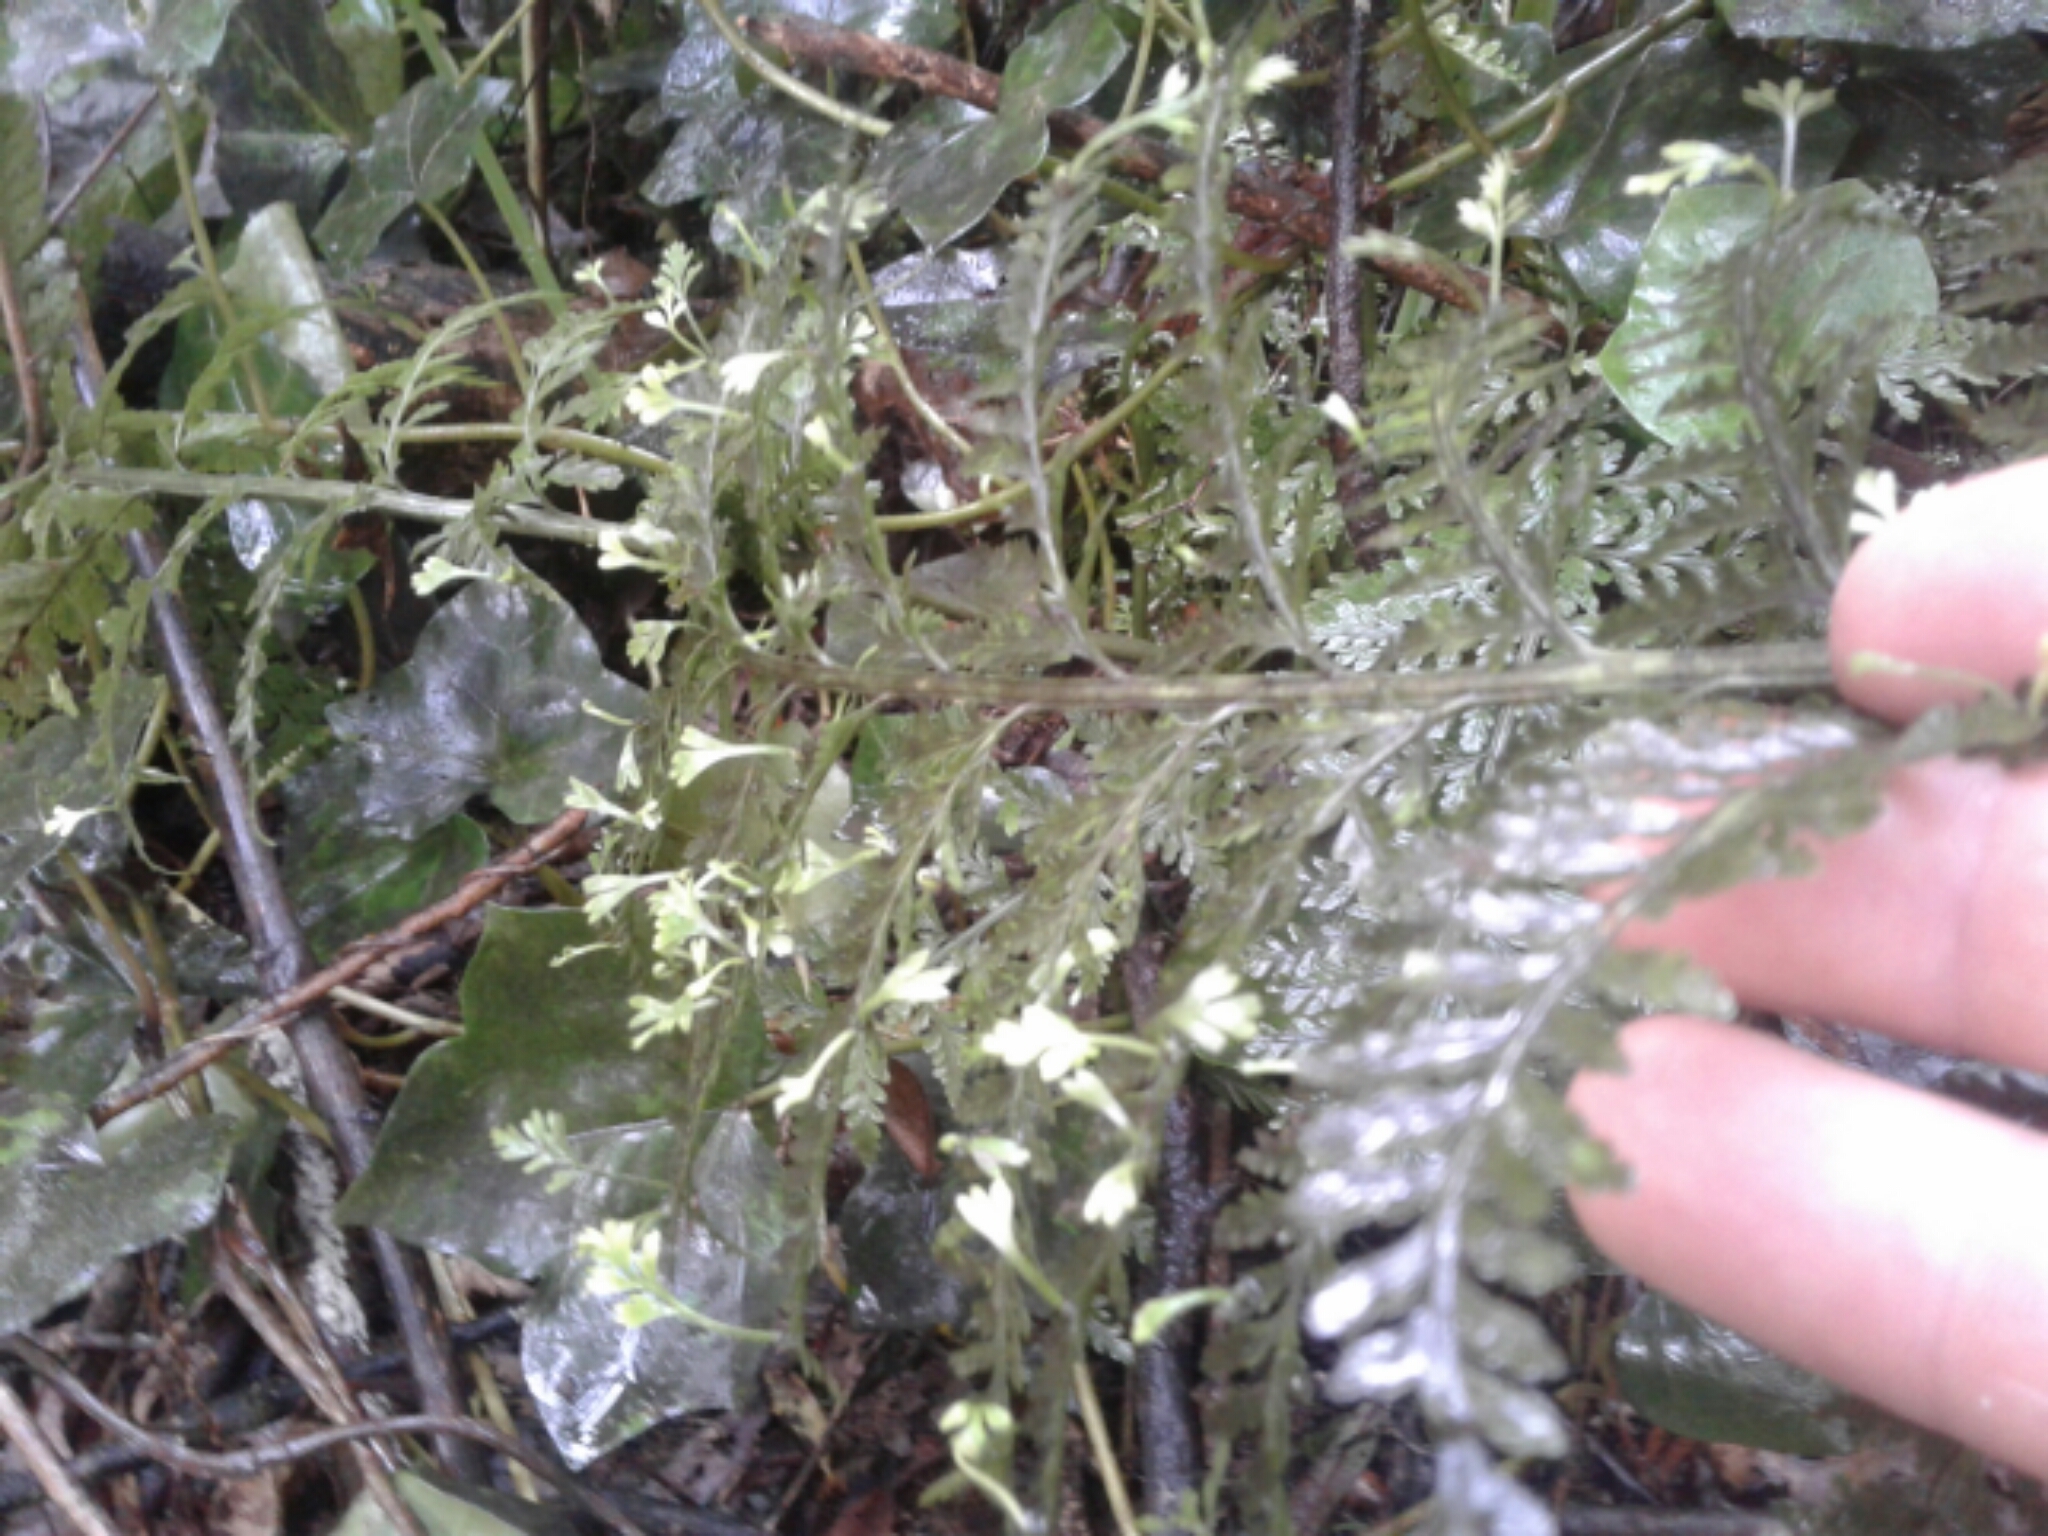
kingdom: Plantae
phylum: Tracheophyta
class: Polypodiopsida
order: Polypodiales
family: Aspleniaceae
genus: Asplenium
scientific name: Asplenium bulbiferum
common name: Mother fern
